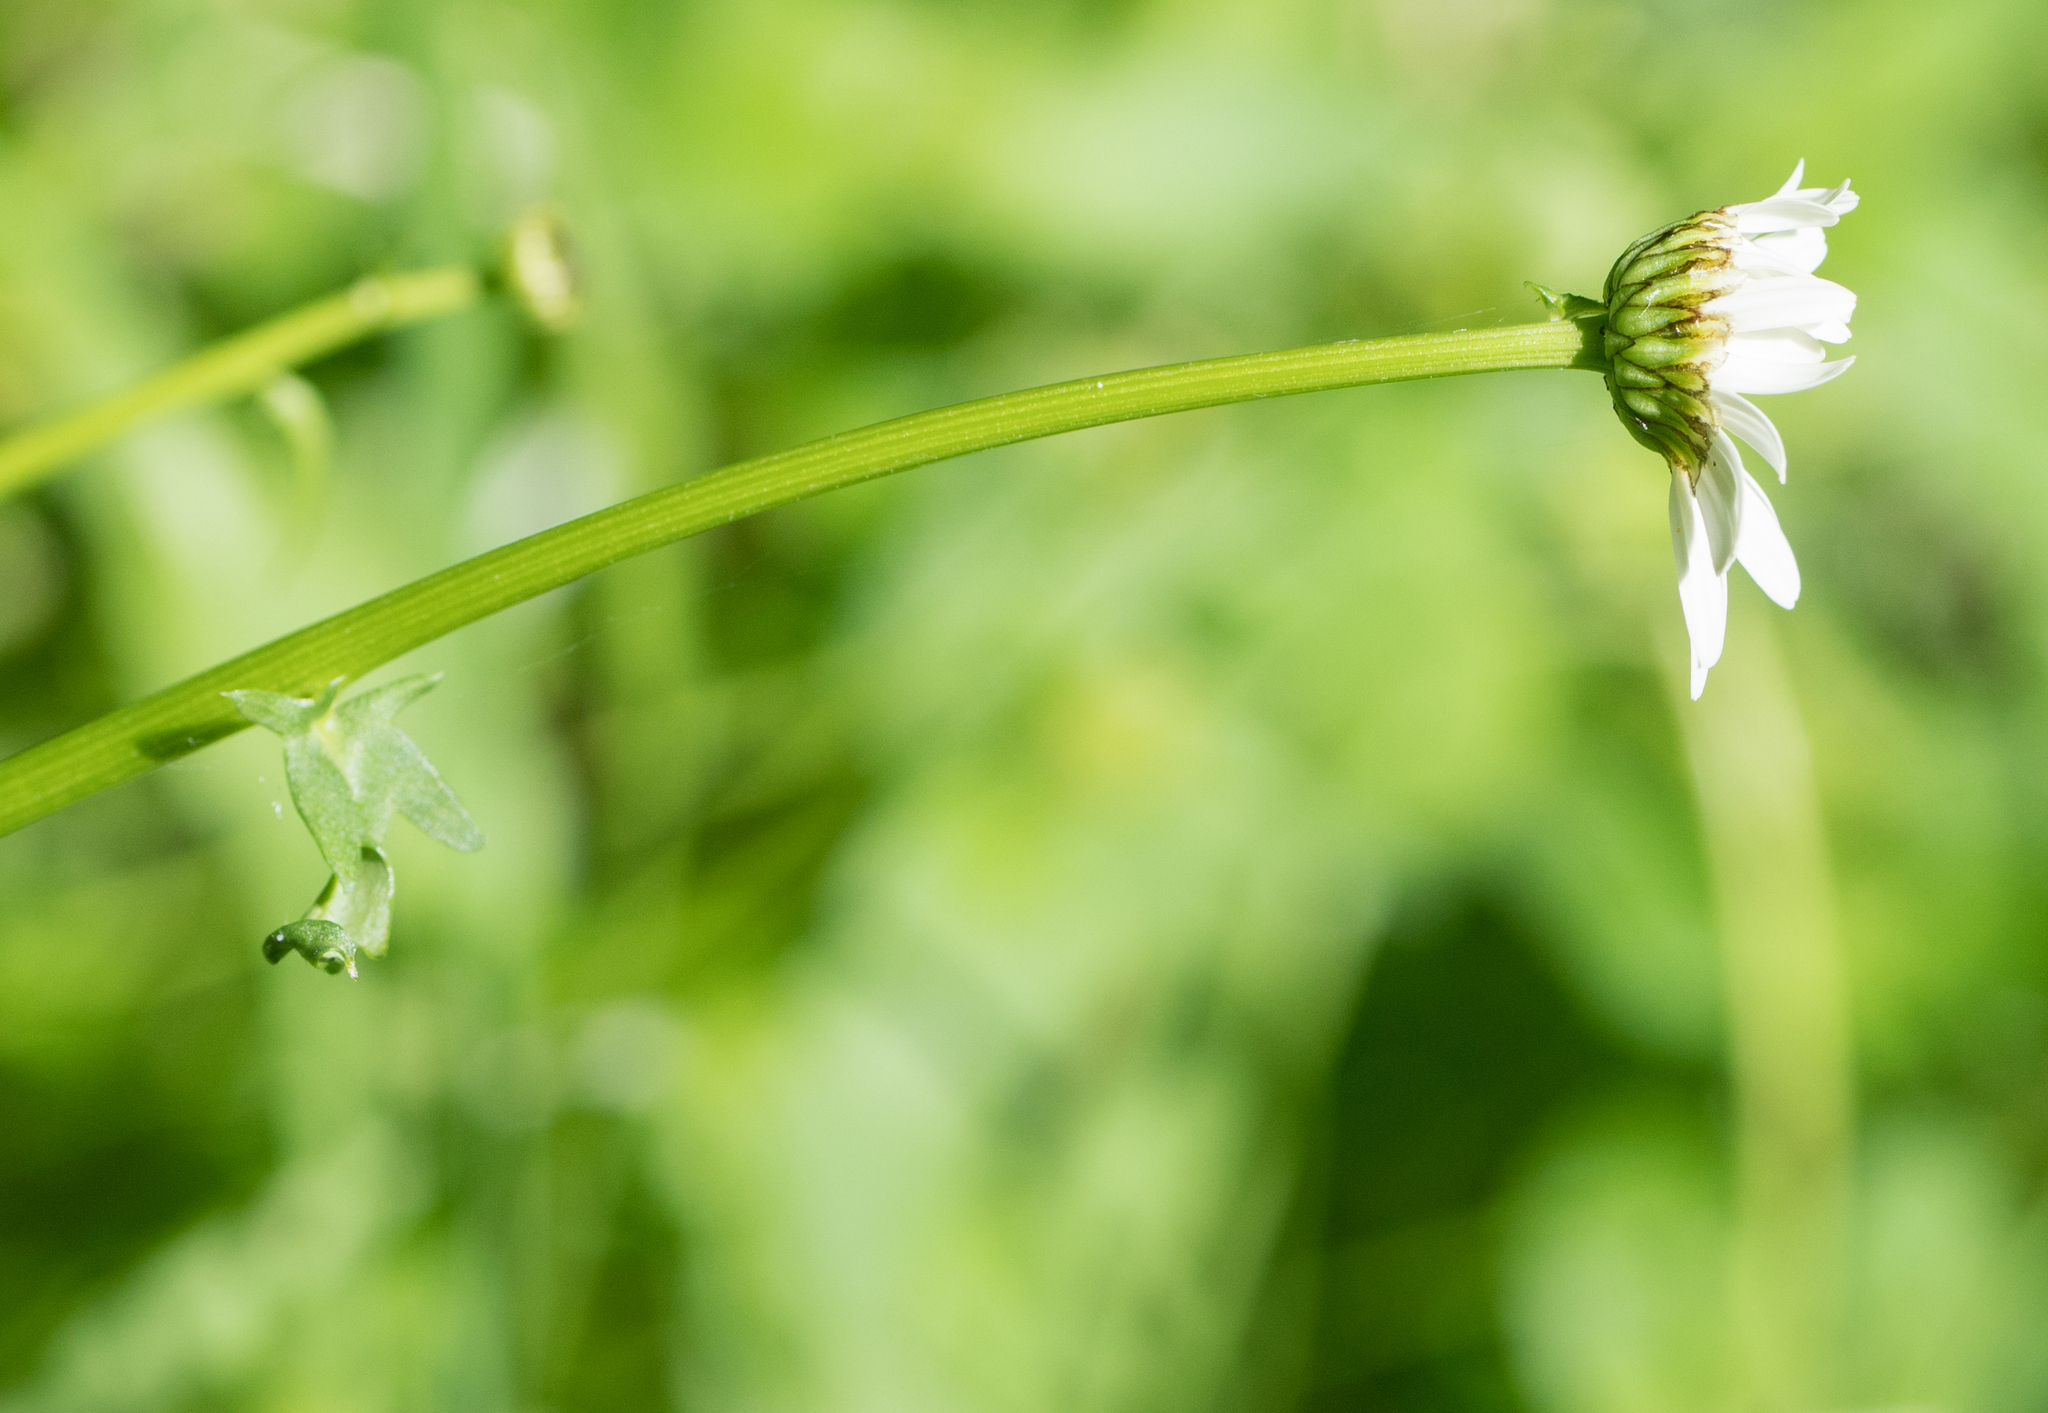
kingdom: Plantae
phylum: Tracheophyta
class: Magnoliopsida
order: Asterales
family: Asteraceae
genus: Leucanthemum
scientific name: Leucanthemum vulgare
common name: Oxeye daisy
